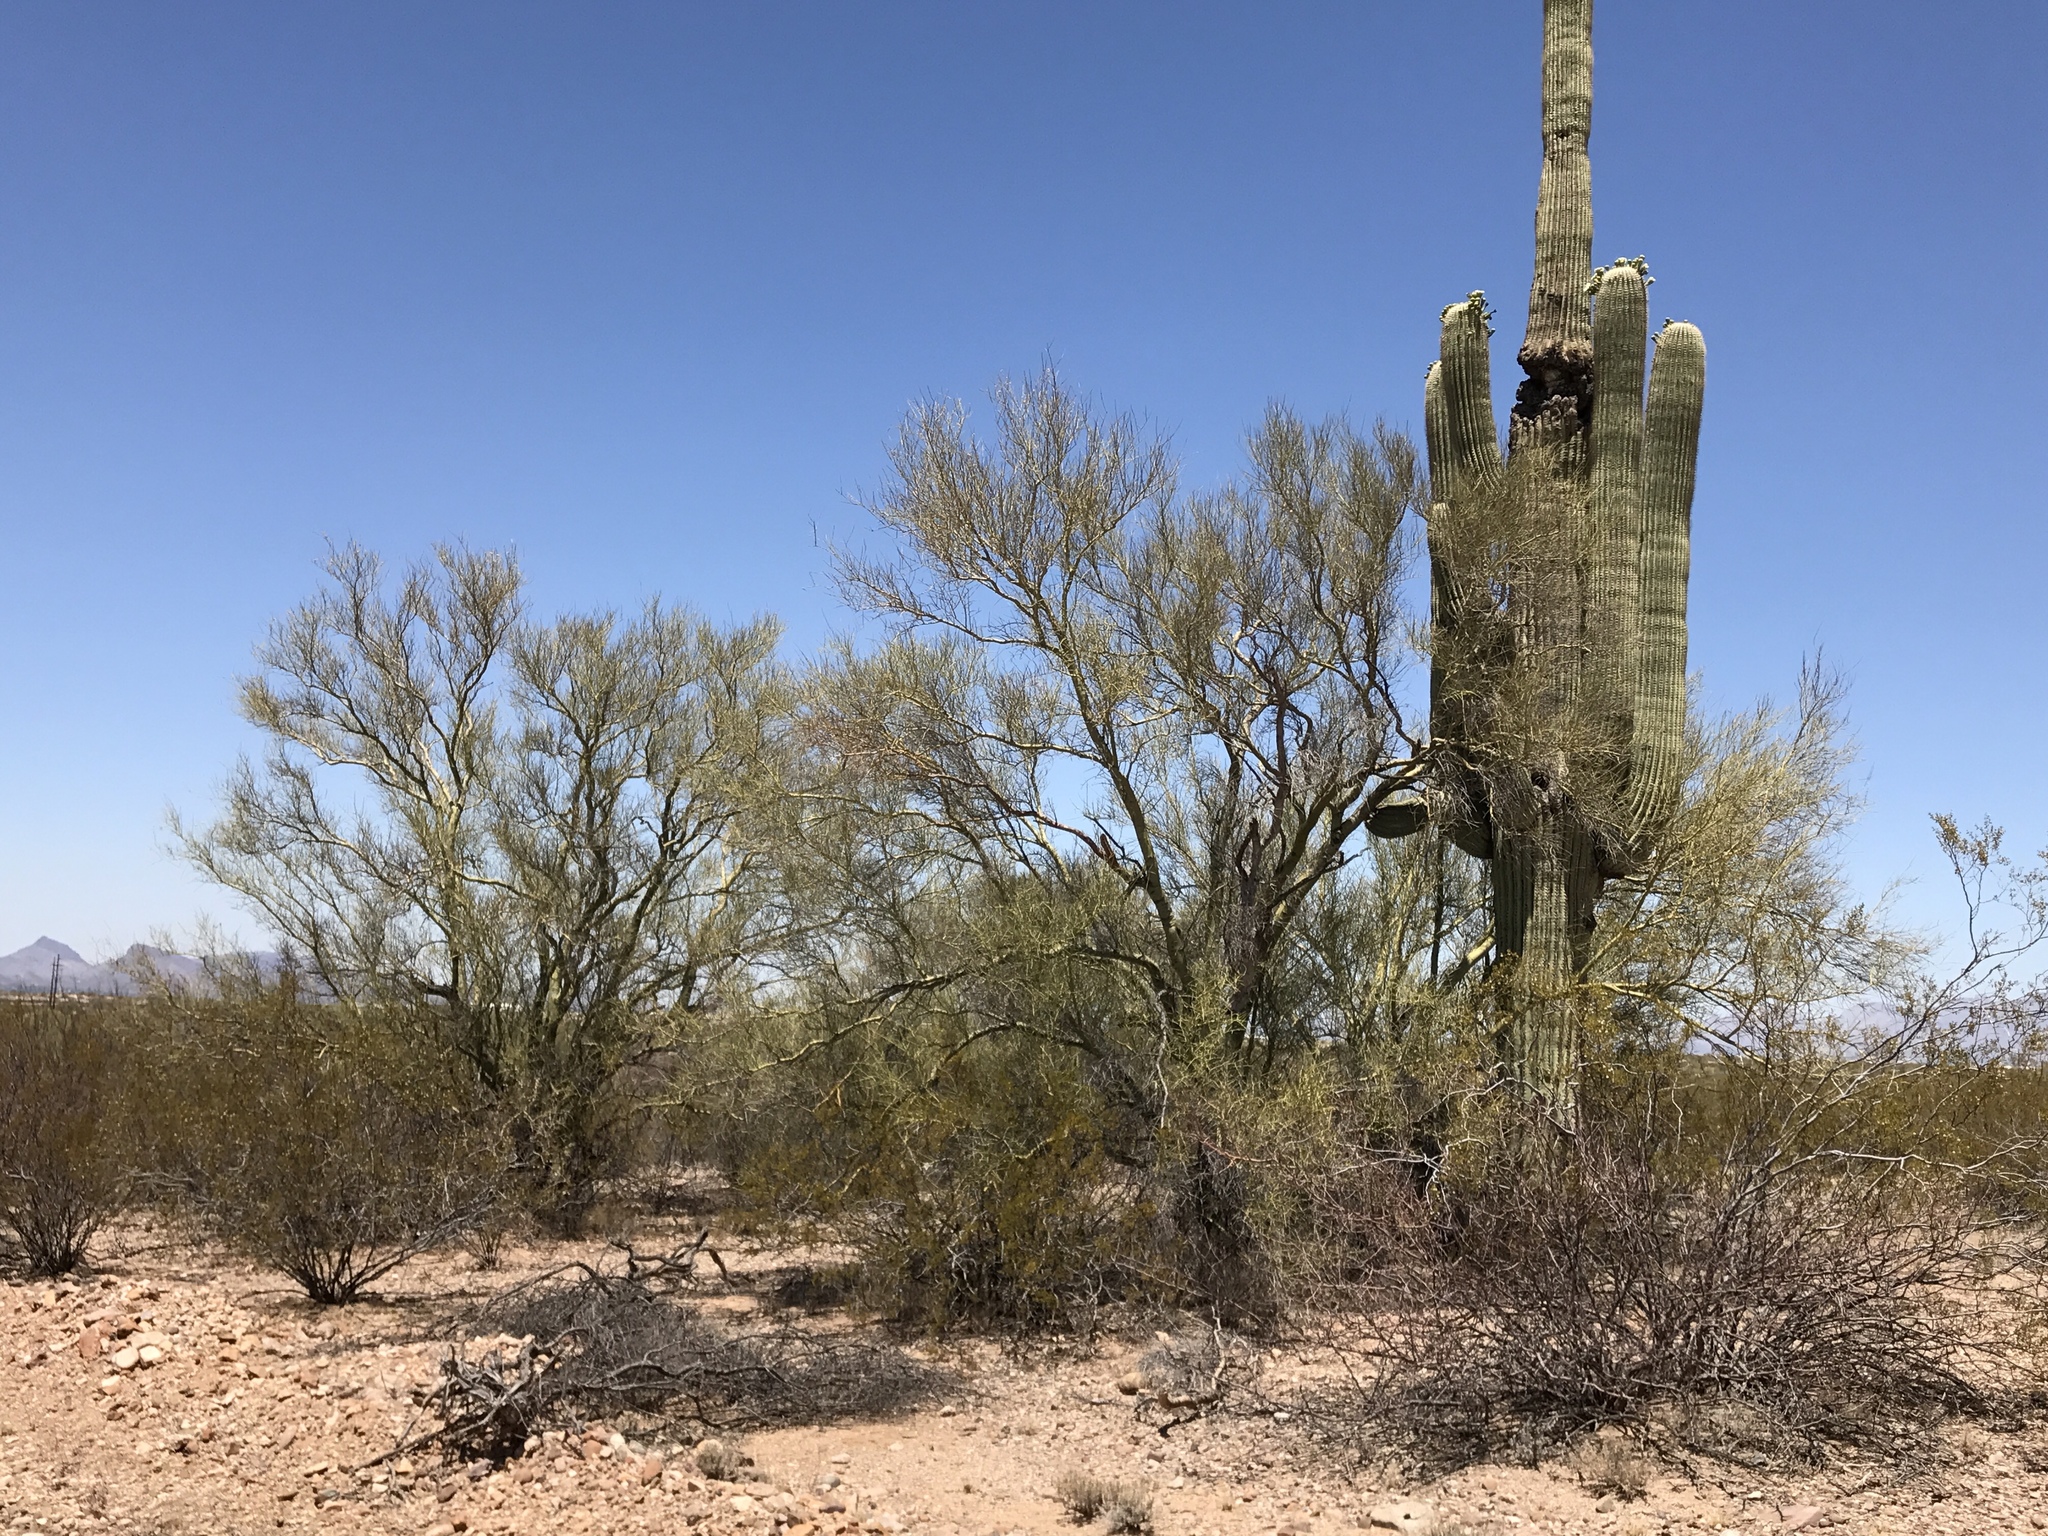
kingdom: Plantae
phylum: Tracheophyta
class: Magnoliopsida
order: Fabales
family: Fabaceae
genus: Parkinsonia
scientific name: Parkinsonia microphylla
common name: Yellow paloverde
